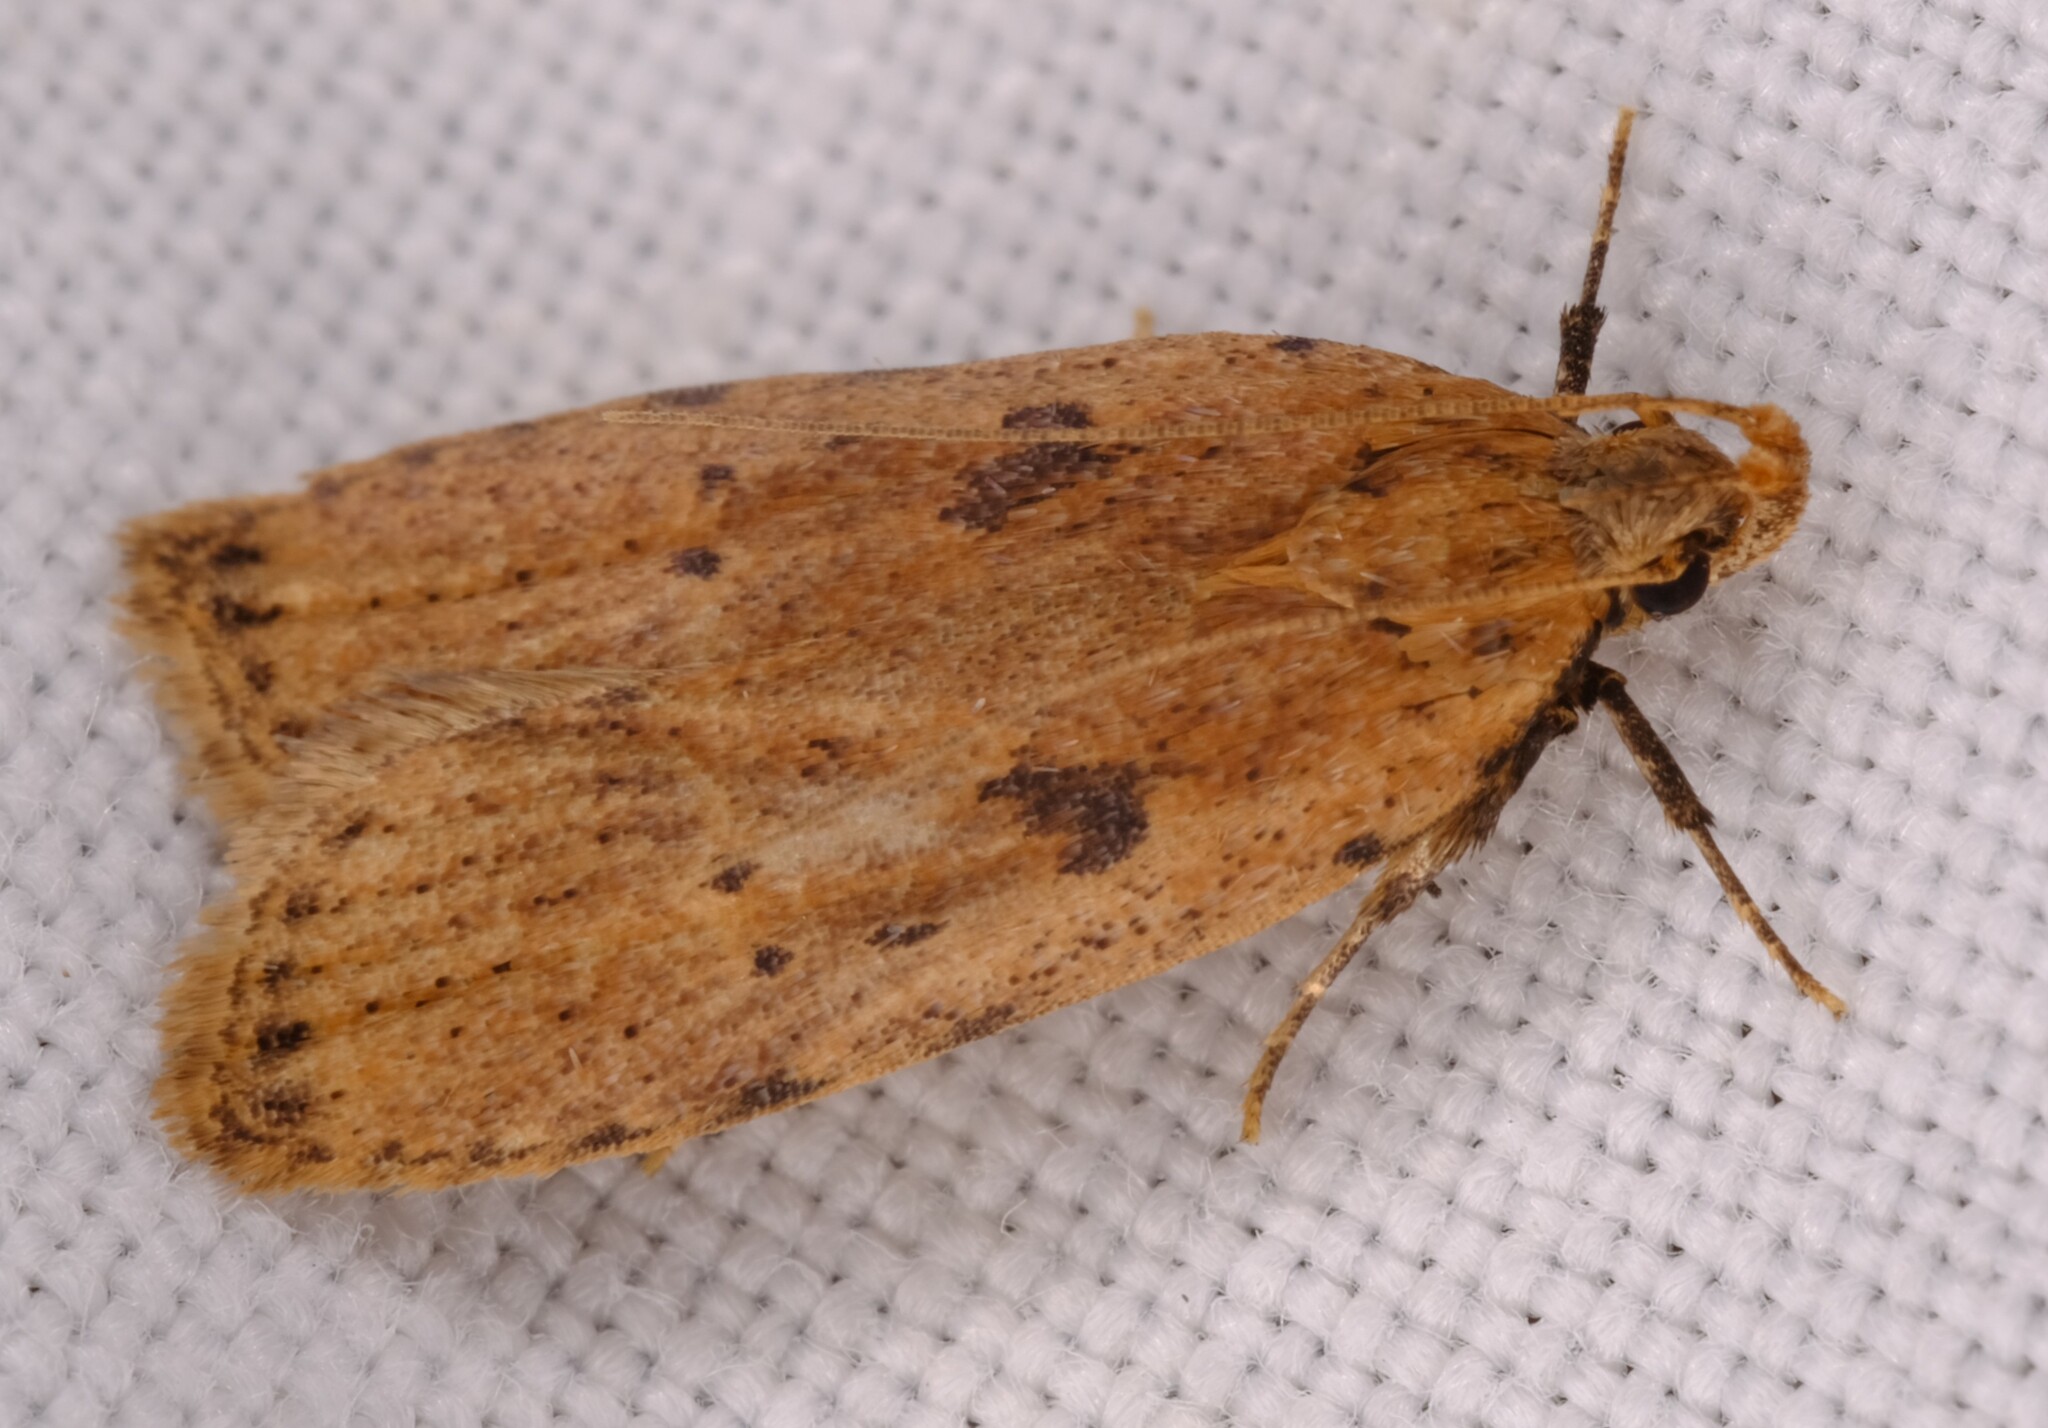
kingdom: Animalia
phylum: Arthropoda
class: Insecta
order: Lepidoptera
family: Gelechiidae
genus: Ardozyga
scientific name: Ardozyga loemias
